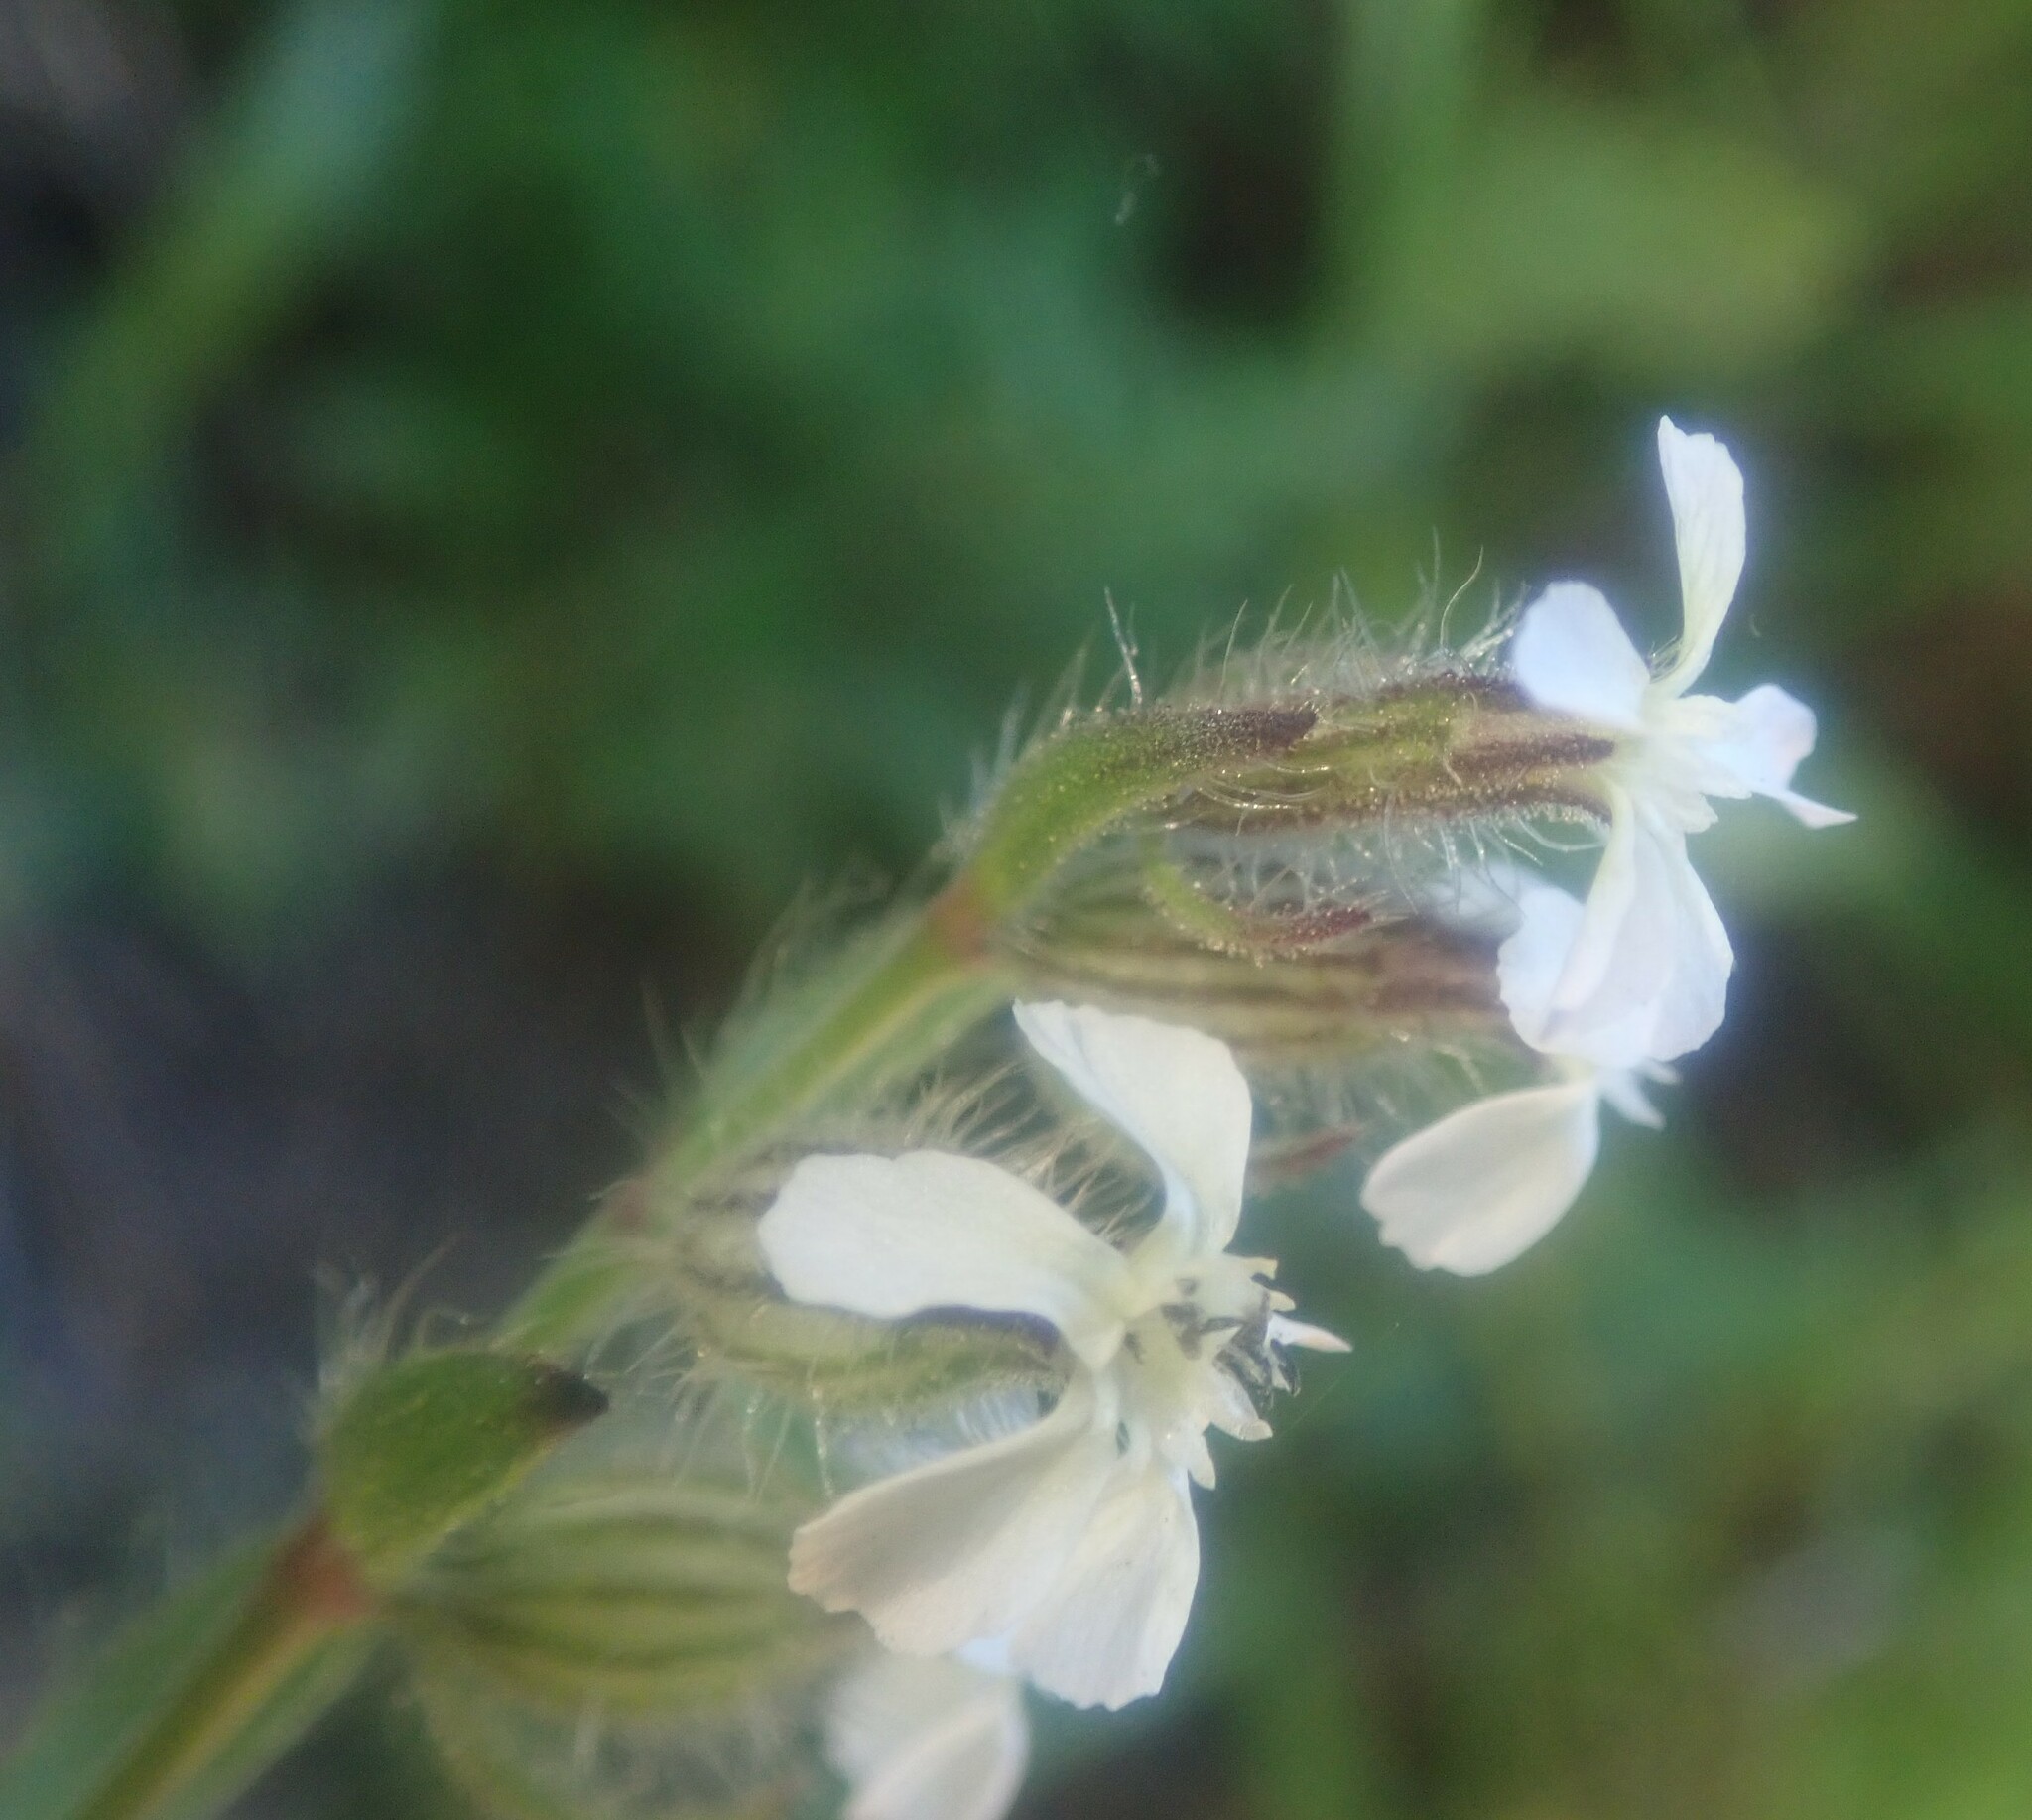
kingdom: Plantae
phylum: Tracheophyta
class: Magnoliopsida
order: Caryophyllales
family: Caryophyllaceae
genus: Silene
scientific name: Silene gallica
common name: Small-flowered catchfly
